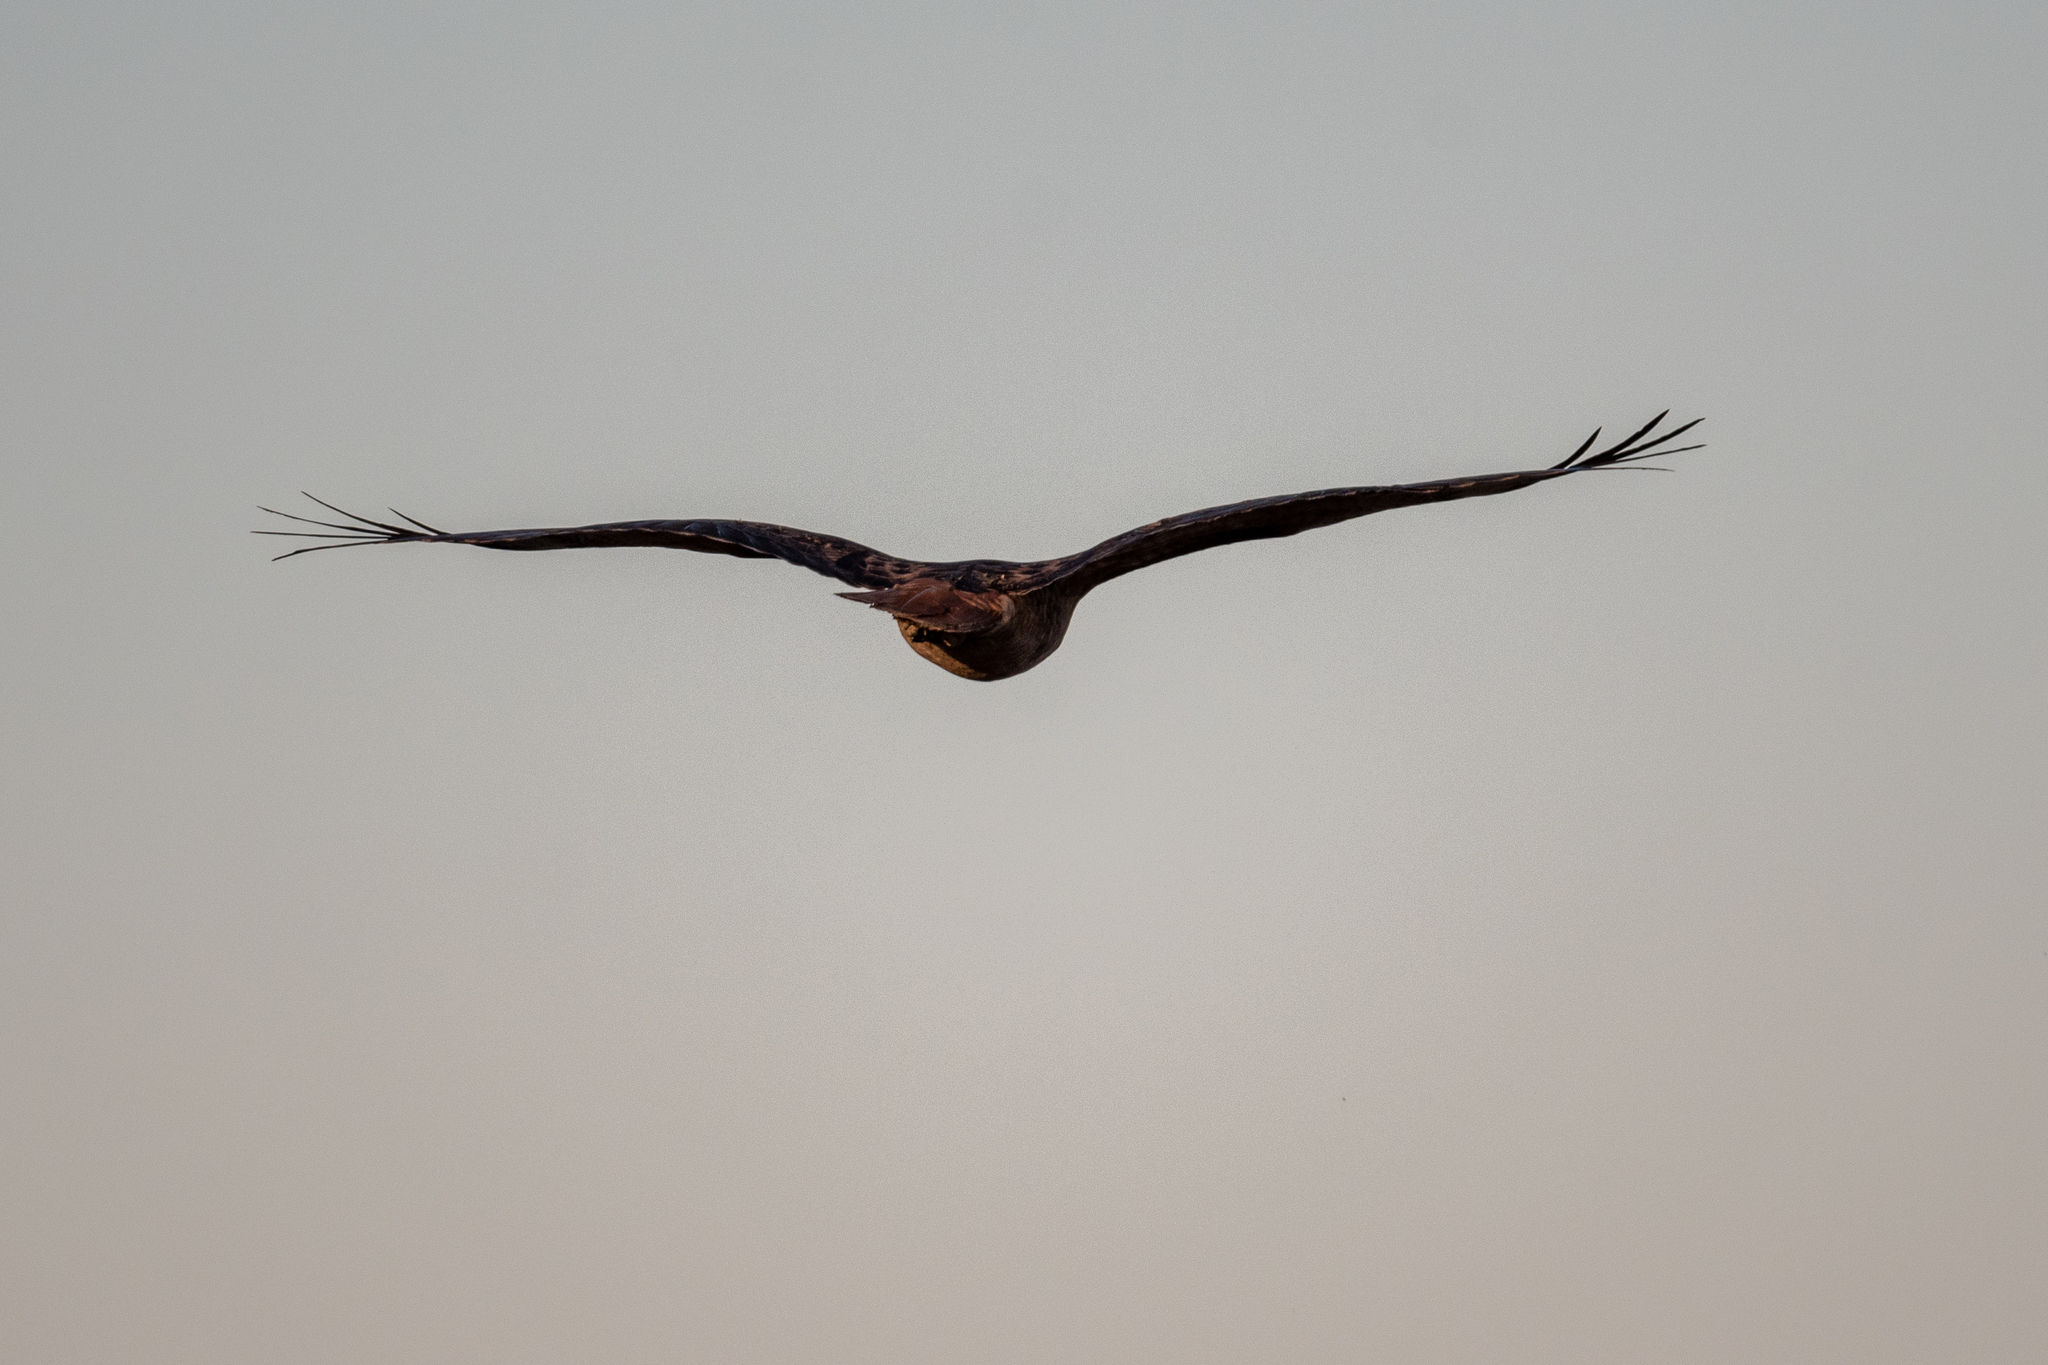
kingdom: Animalia
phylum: Chordata
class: Aves
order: Accipitriformes
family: Accipitridae
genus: Buteo
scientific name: Buteo jamaicensis
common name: Red-tailed hawk
